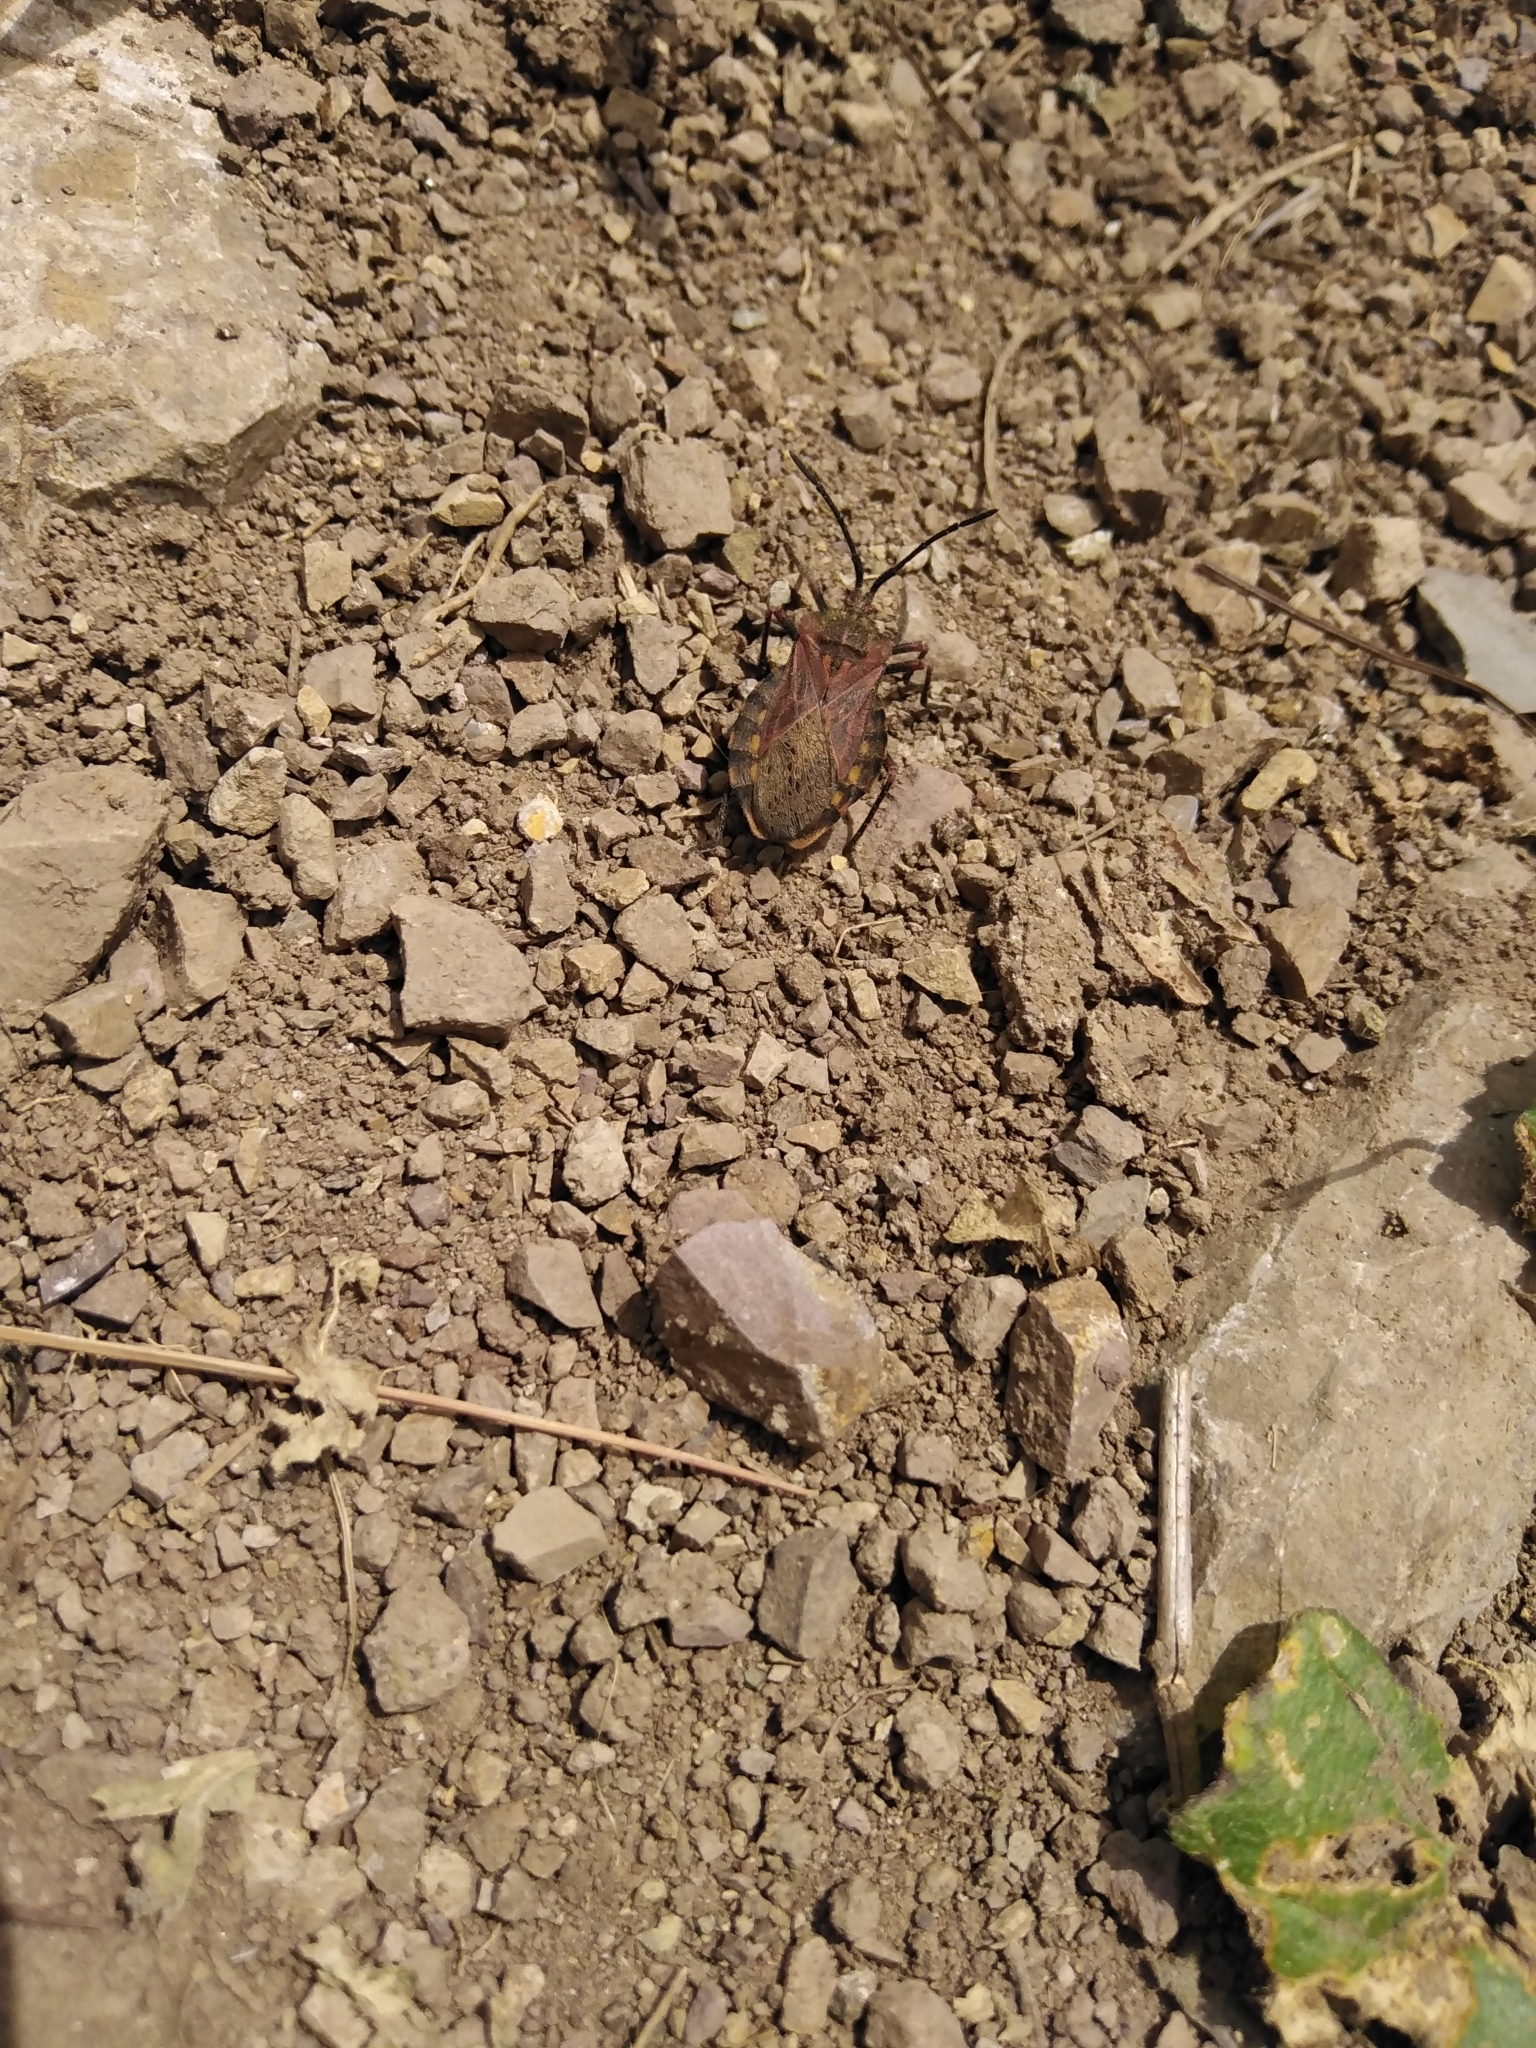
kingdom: Animalia
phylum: Arthropoda
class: Insecta
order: Hemiptera
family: Coreidae
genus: Spartocera
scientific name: Spartocera fusca
